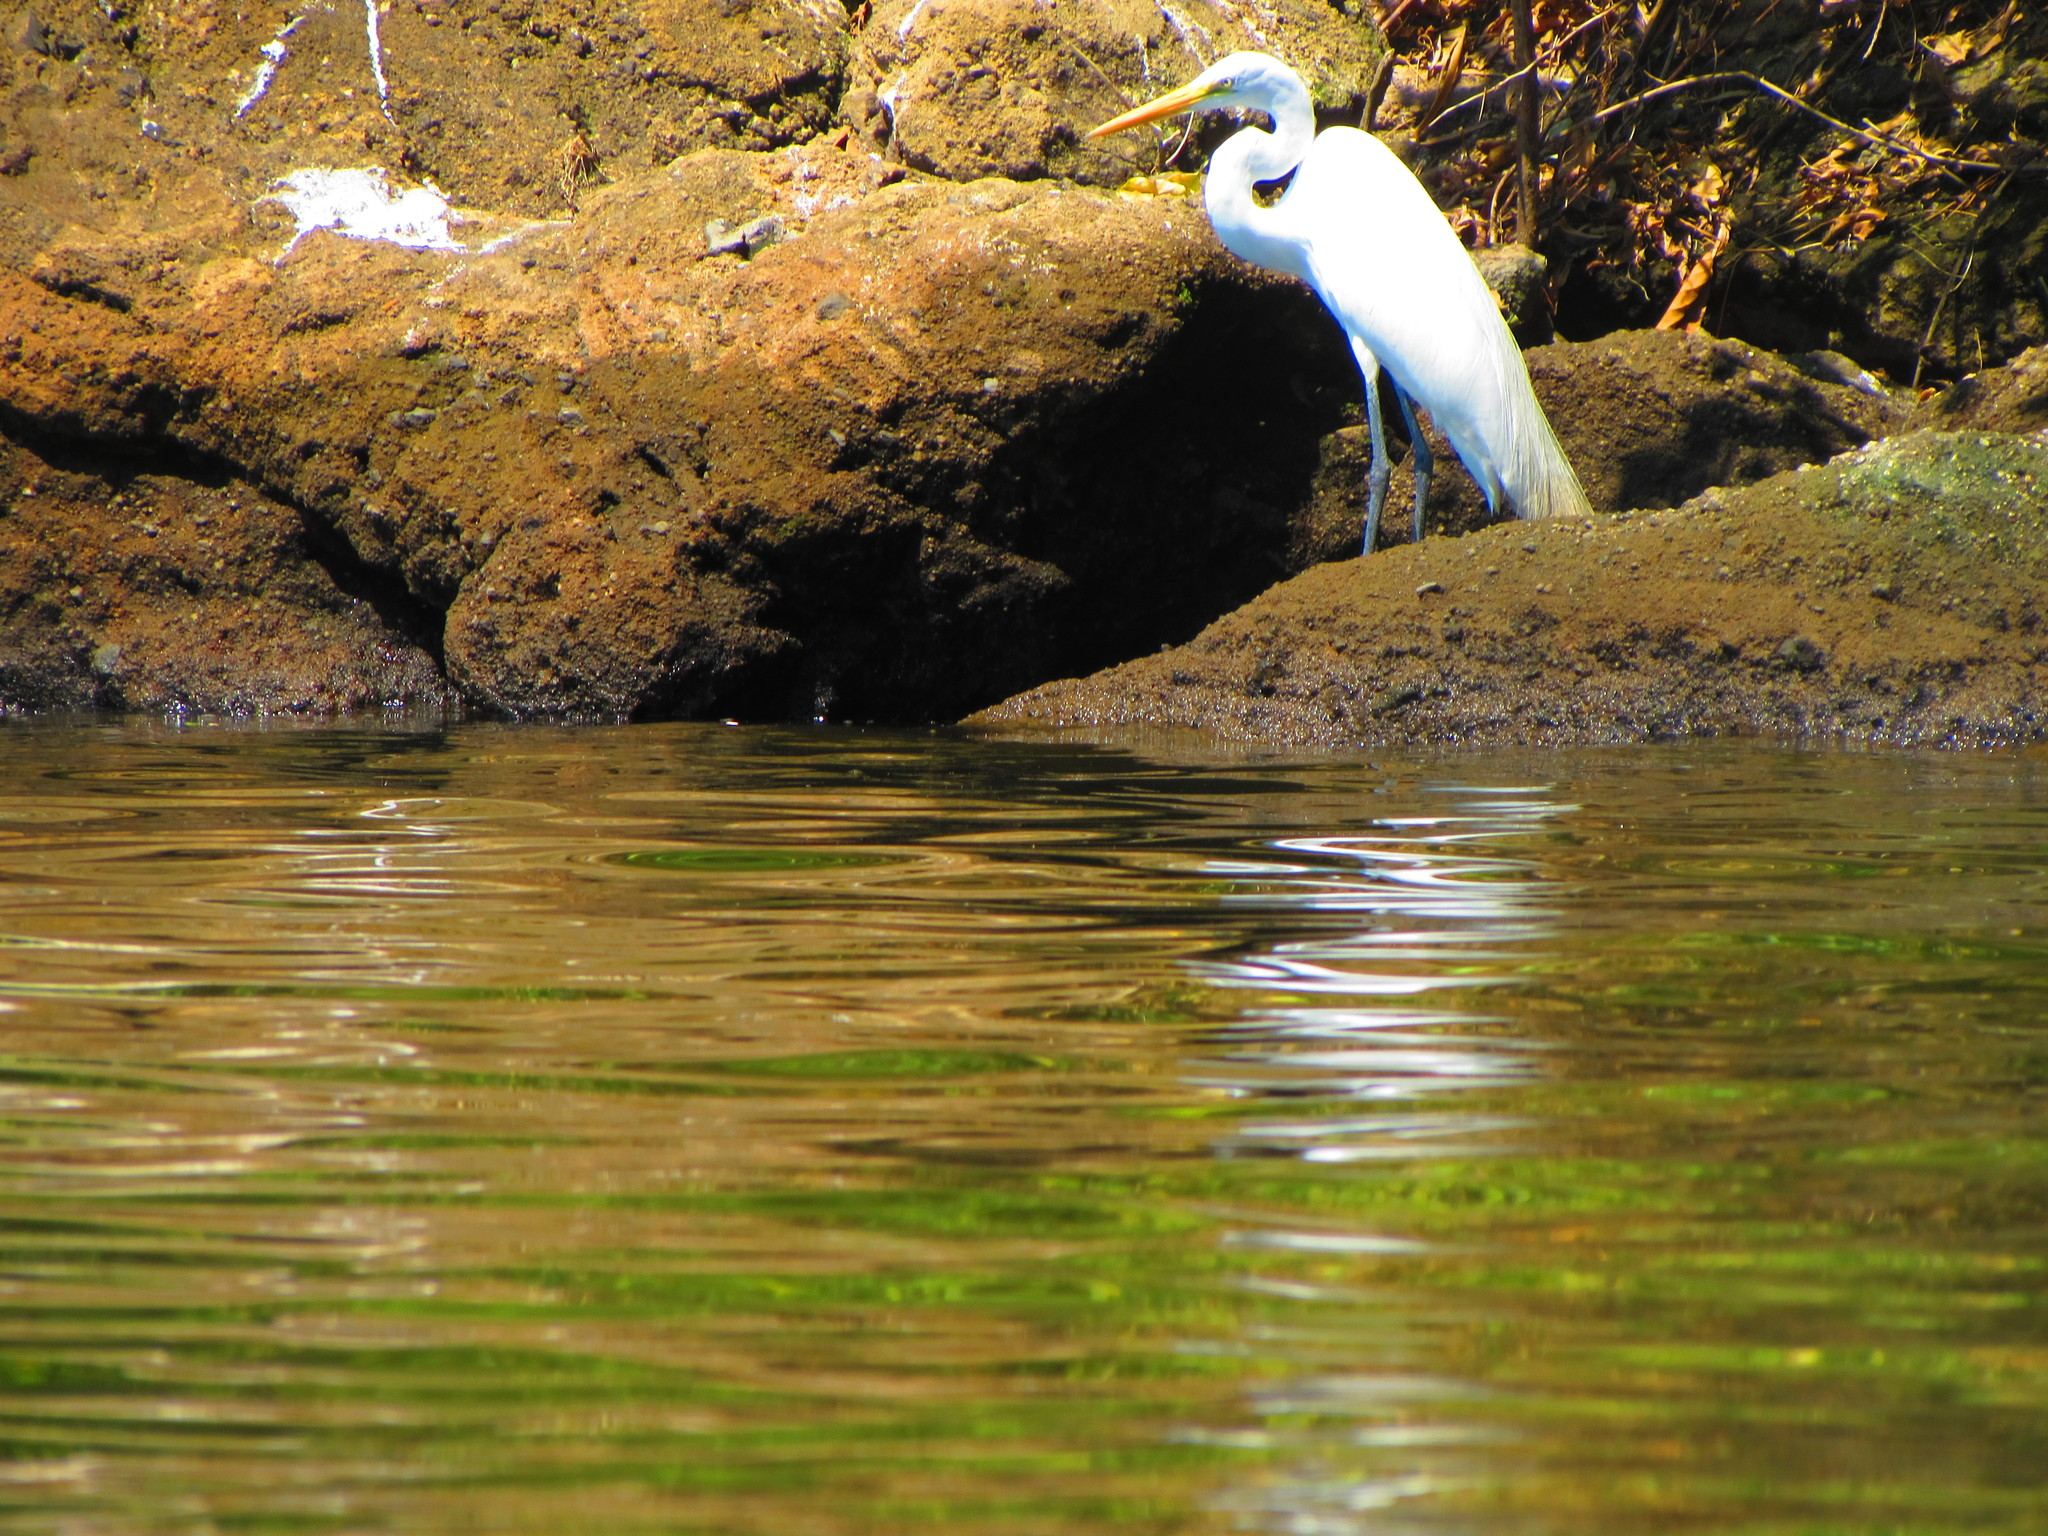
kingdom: Animalia
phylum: Chordata
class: Aves
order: Pelecaniformes
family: Ardeidae
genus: Ardea
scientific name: Ardea alba
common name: Great egret
